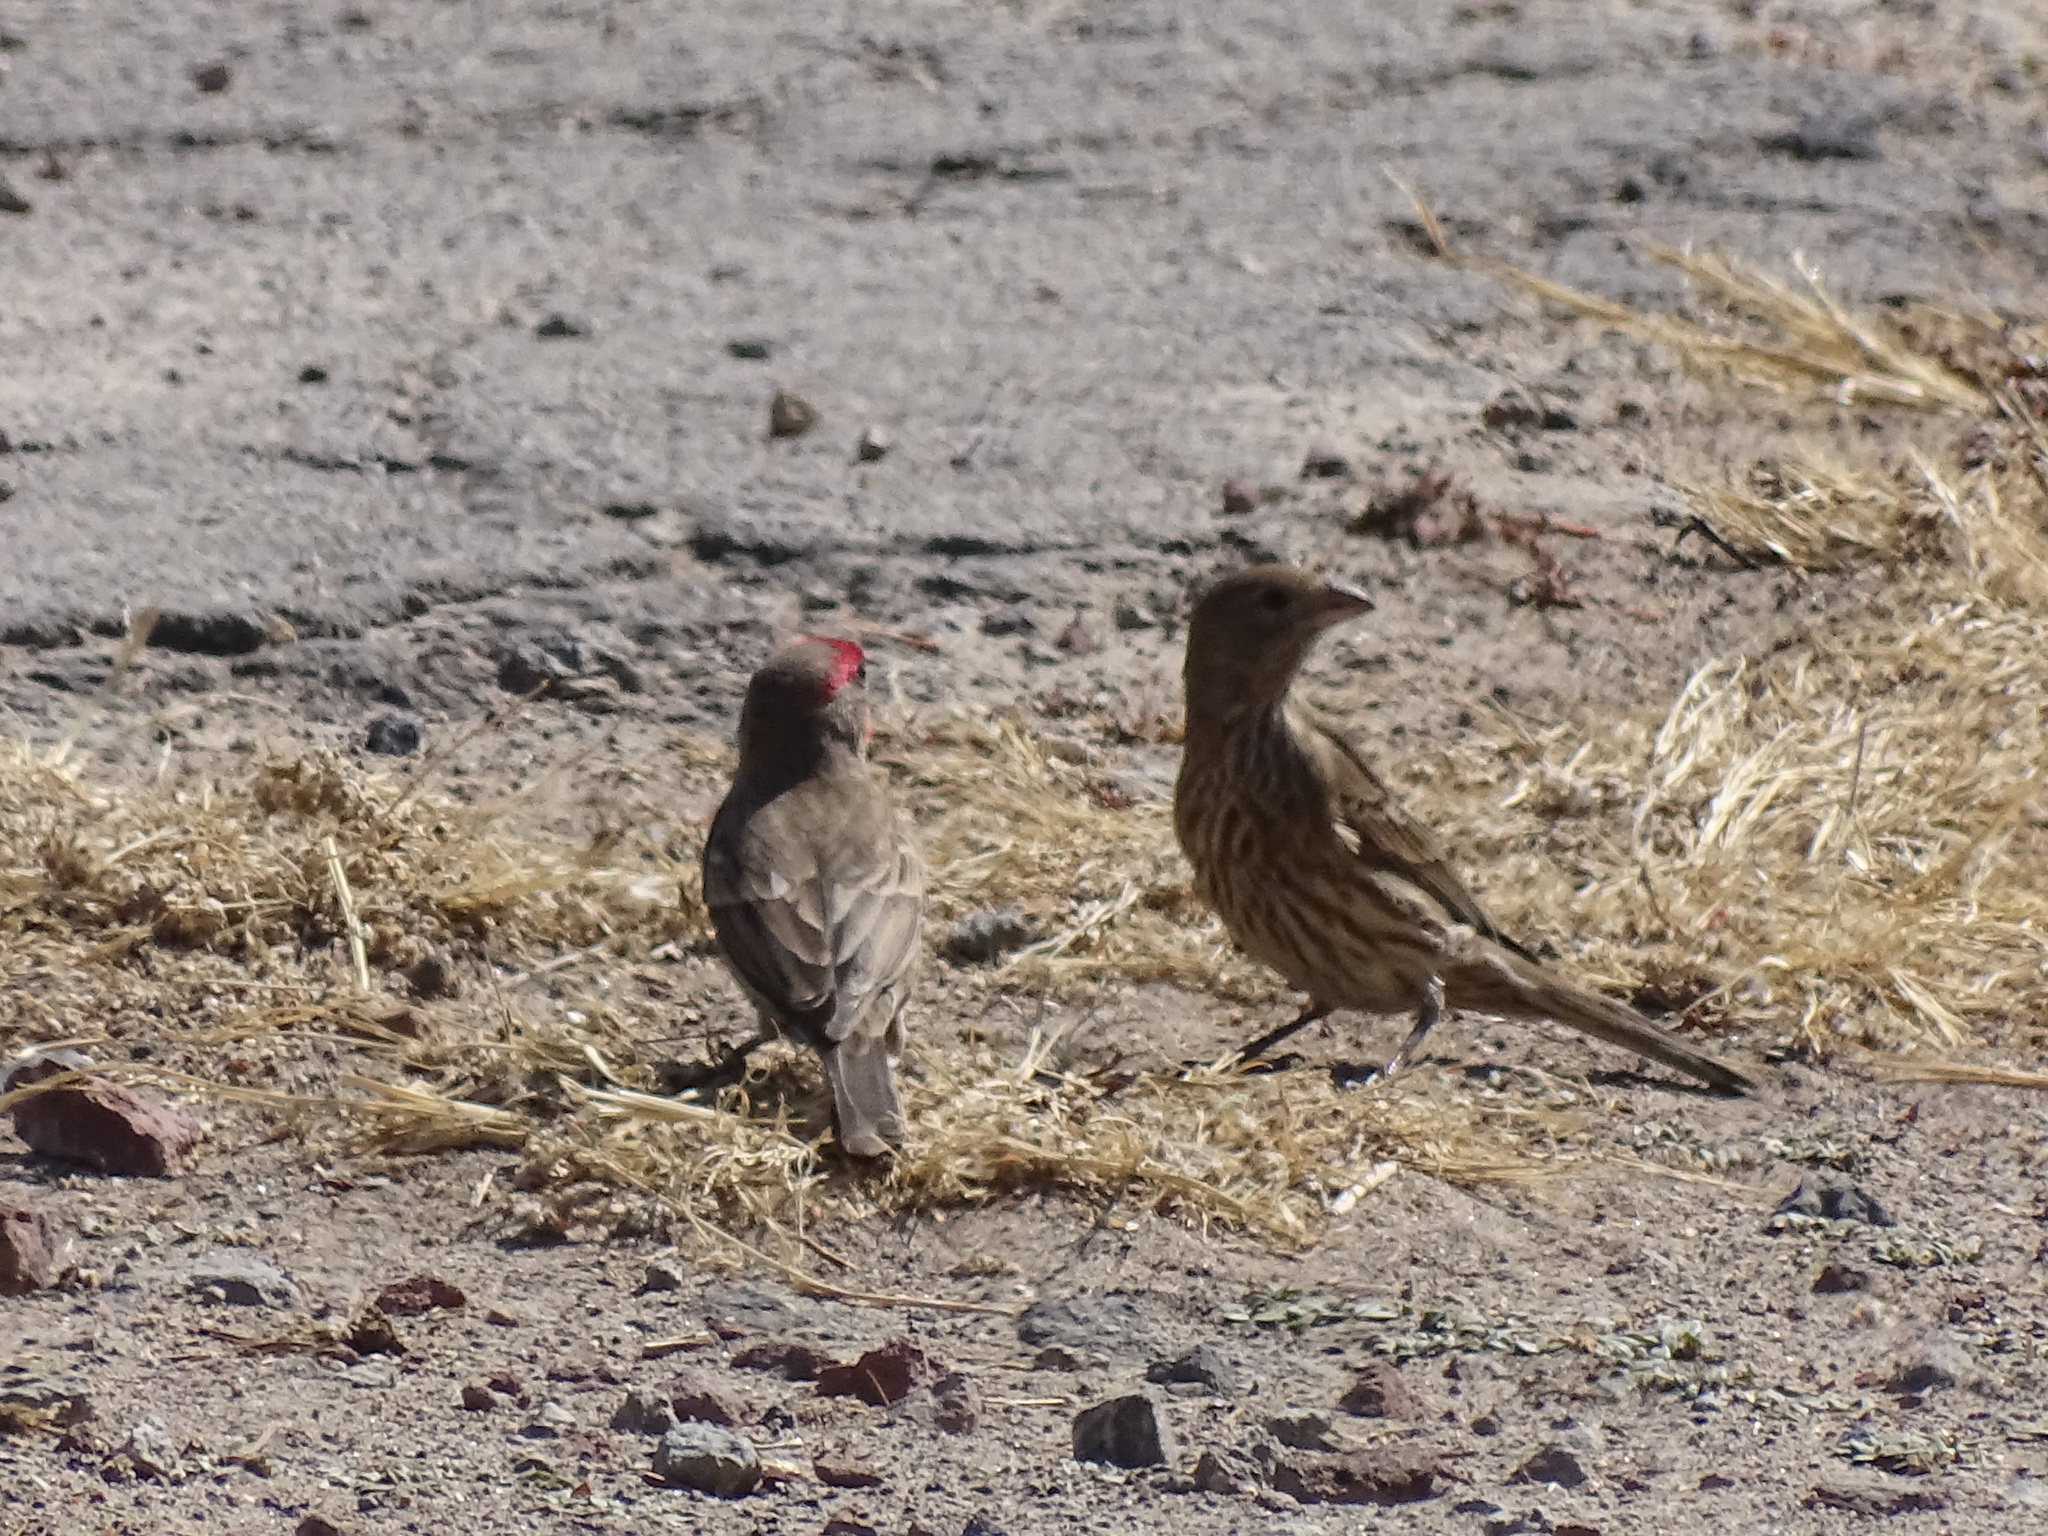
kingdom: Animalia
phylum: Chordata
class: Aves
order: Passeriformes
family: Fringillidae
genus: Haemorhous
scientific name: Haemorhous mexicanus
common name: House finch
